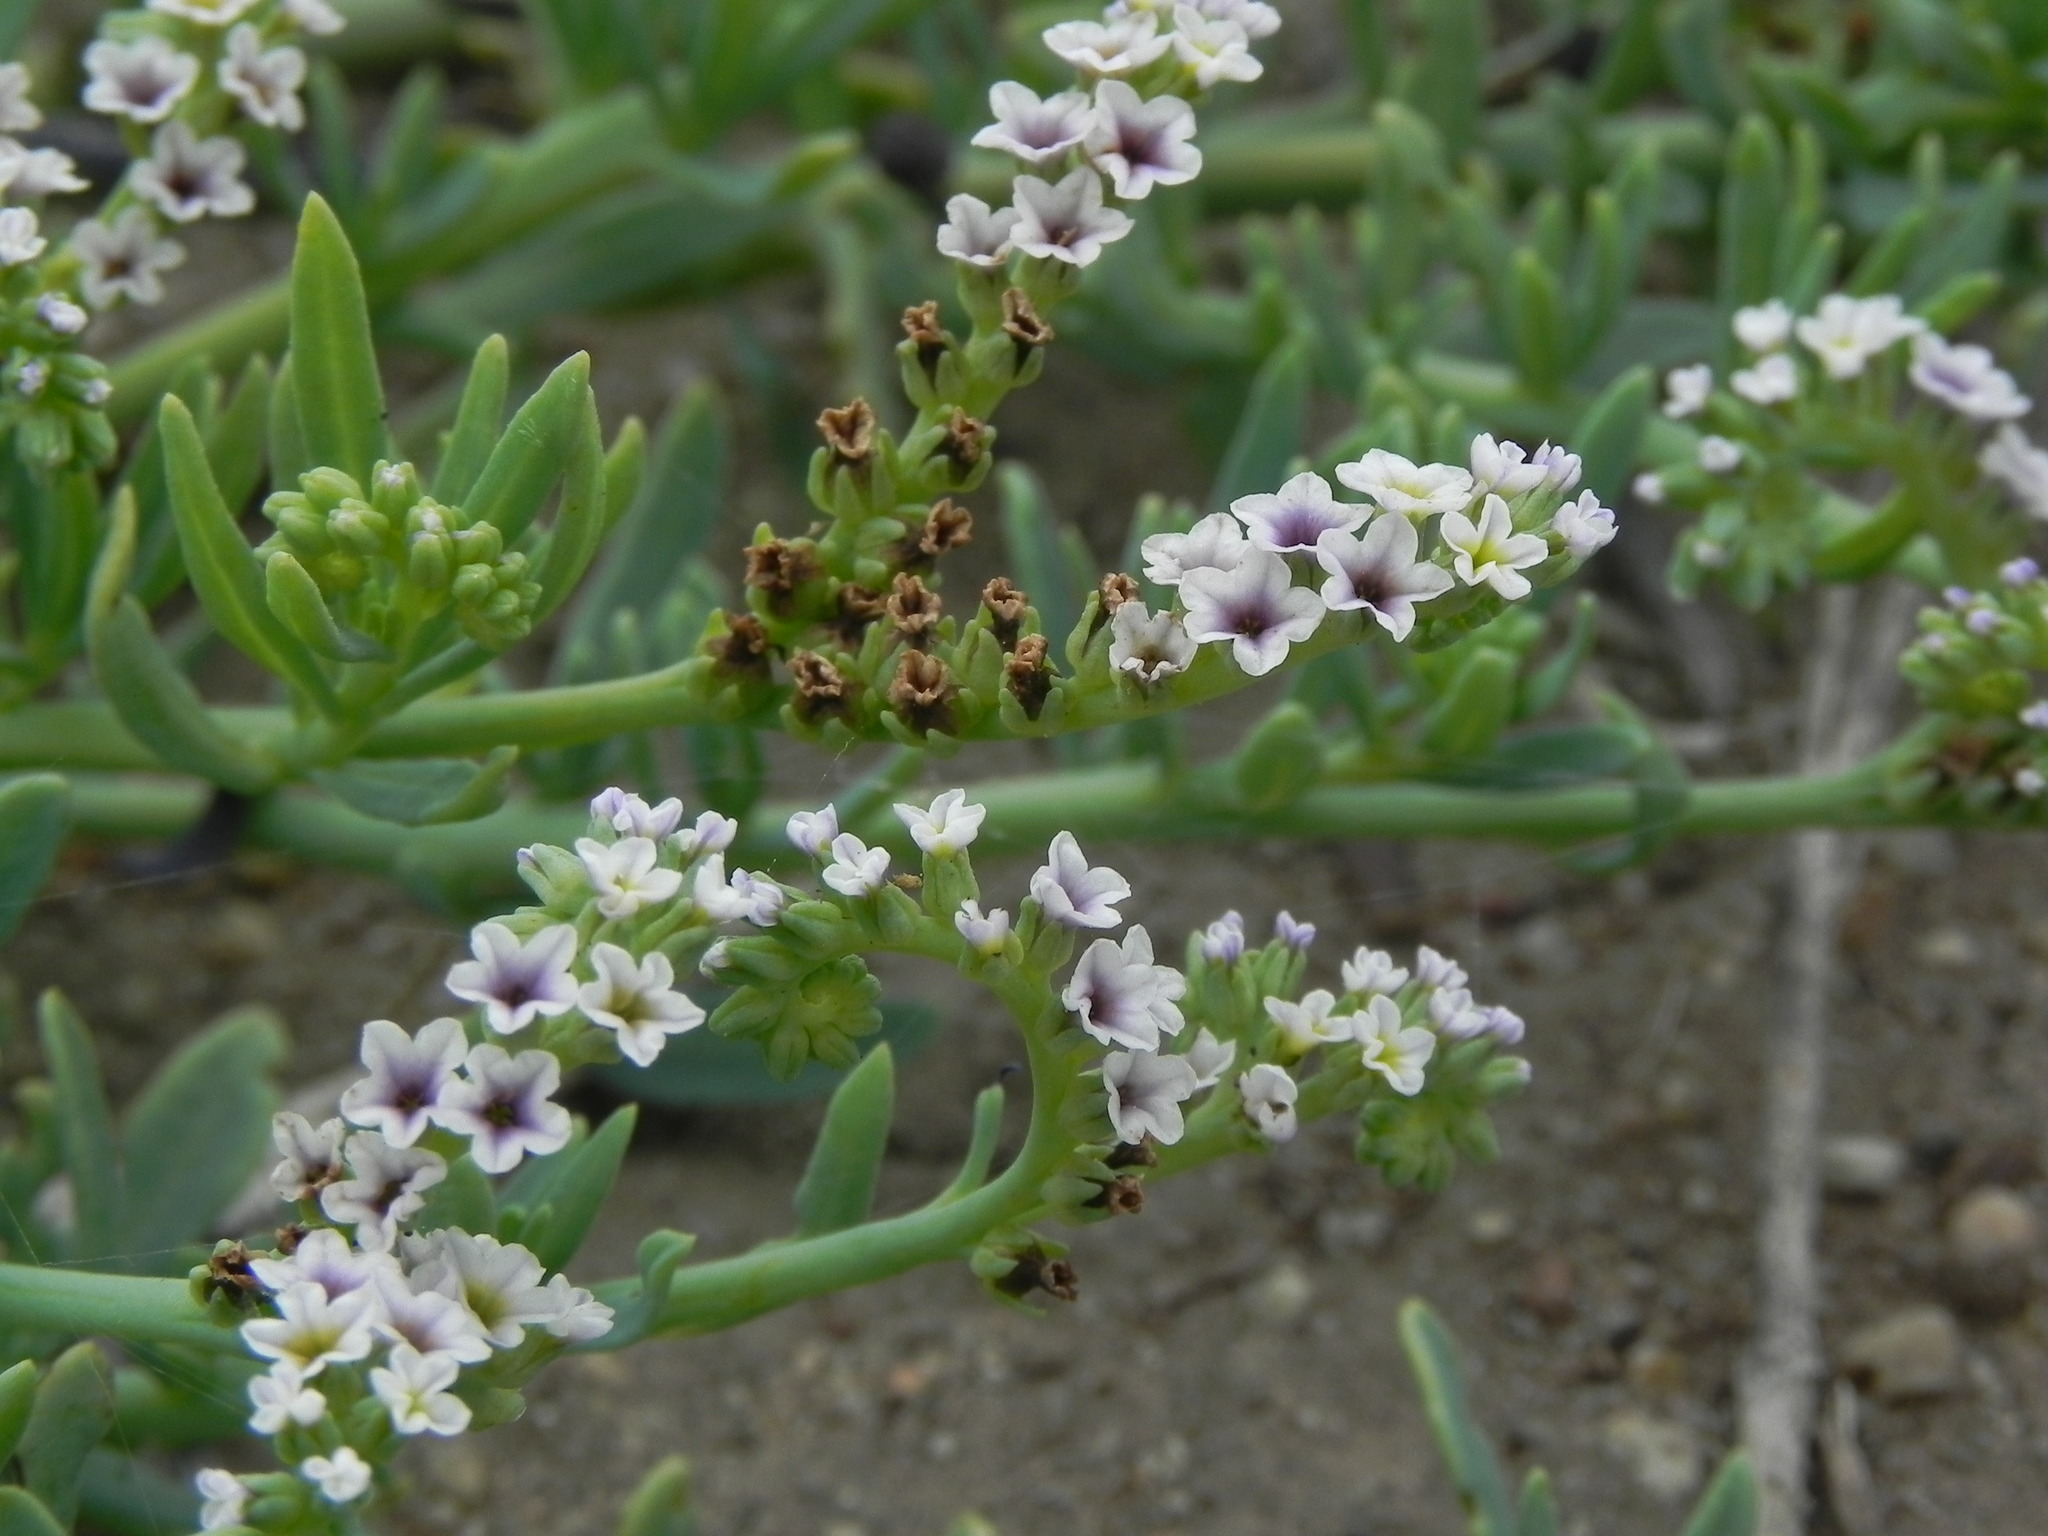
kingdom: Plantae
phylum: Tracheophyta
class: Magnoliopsida
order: Boraginales
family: Heliotropiaceae
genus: Heliotropium
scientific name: Heliotropium curassavicum
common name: Seaside heliotrope
